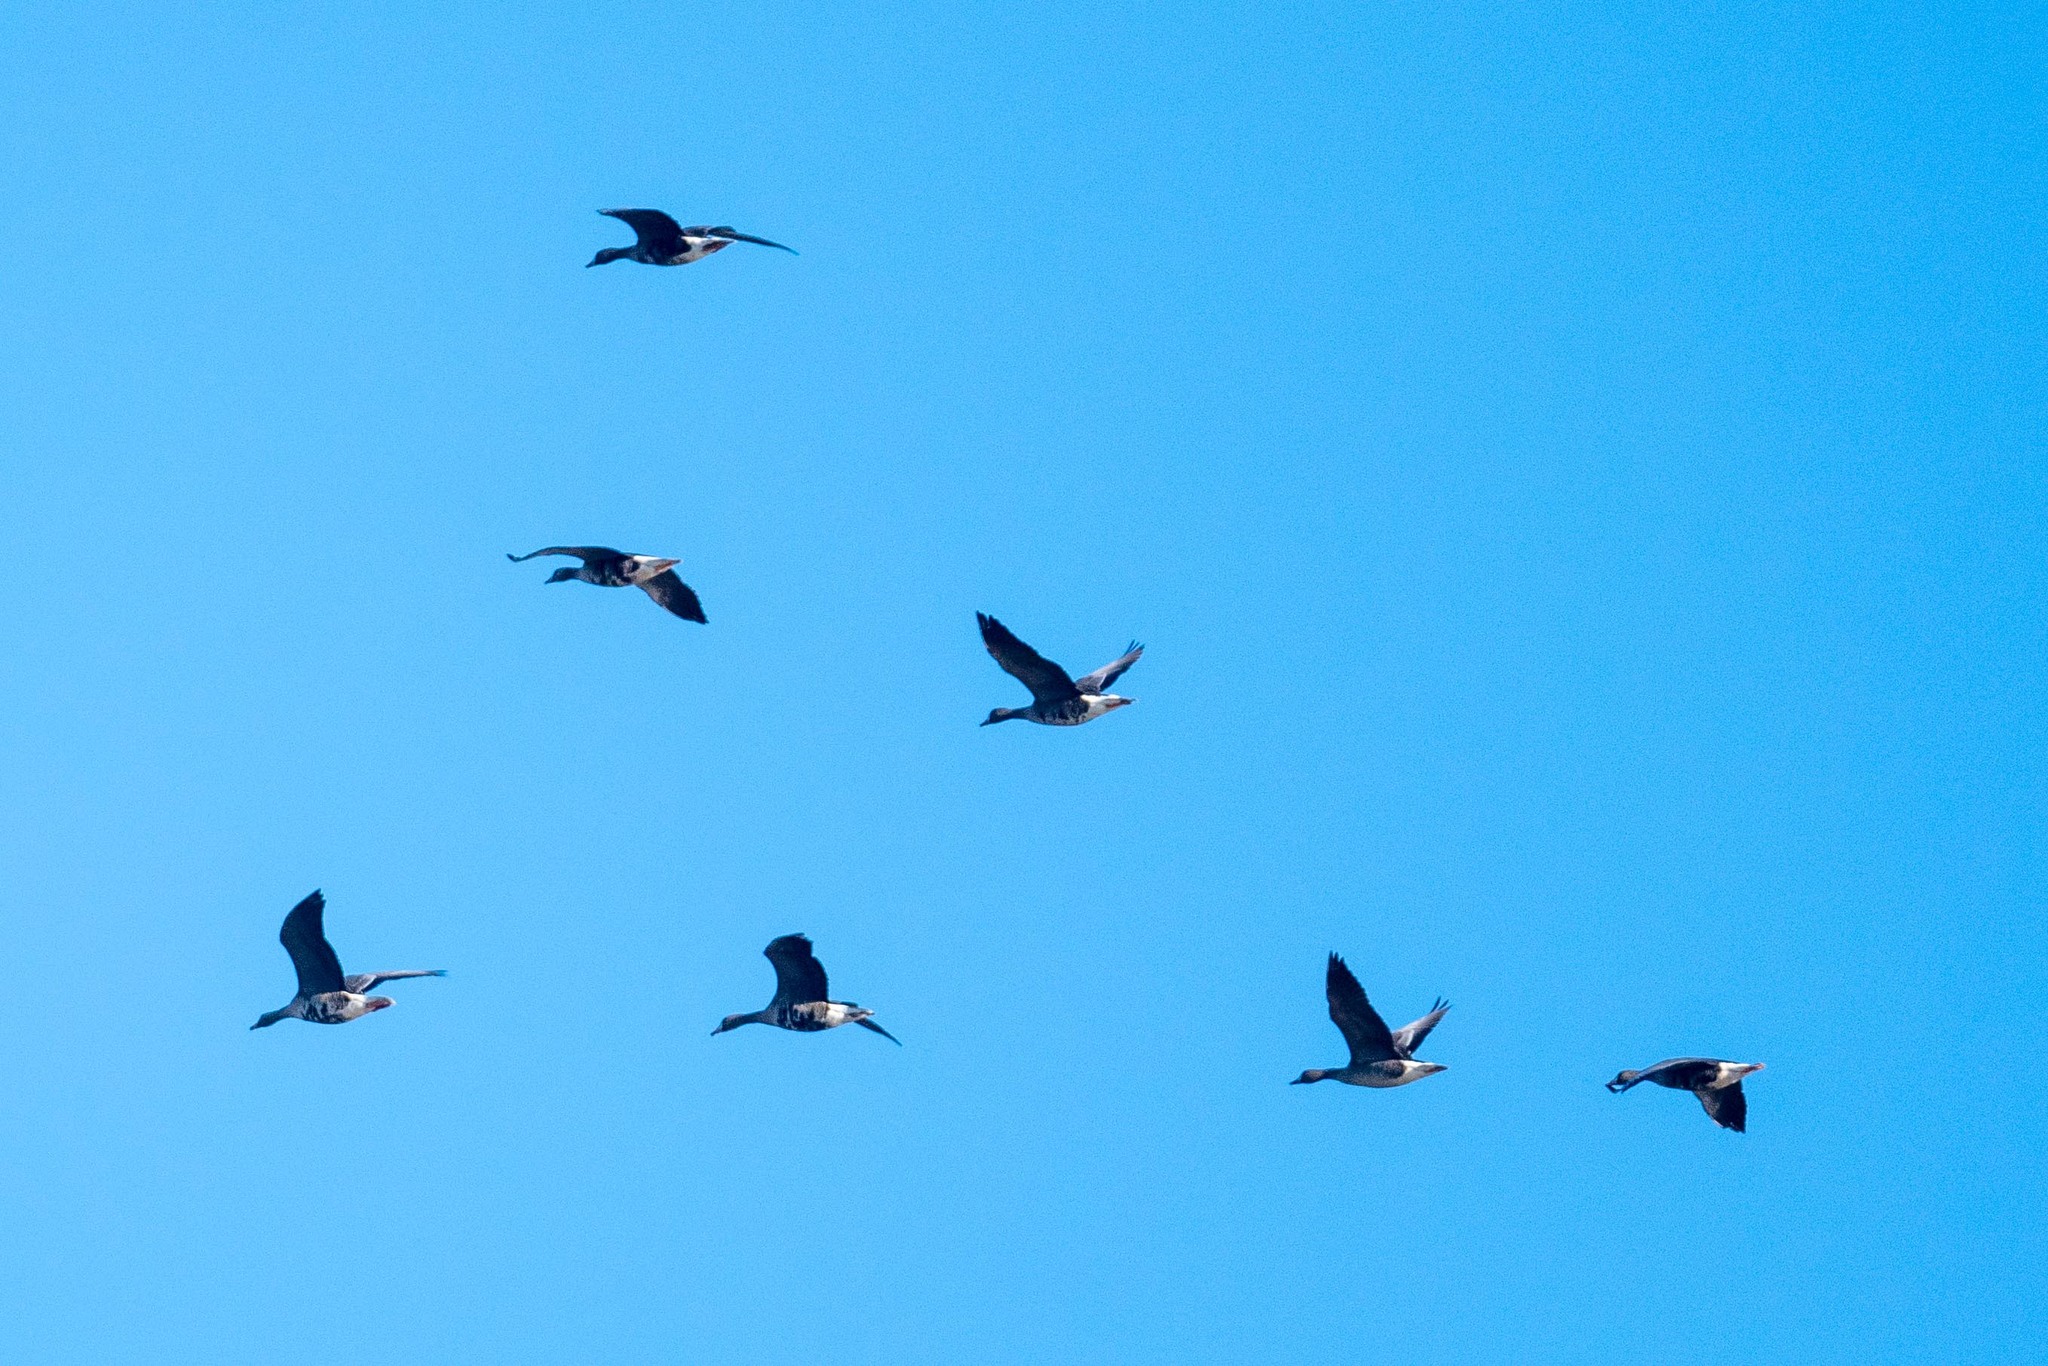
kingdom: Animalia
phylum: Chordata
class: Aves
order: Anseriformes
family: Anatidae
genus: Anser
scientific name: Anser albifrons
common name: Greater white-fronted goose
